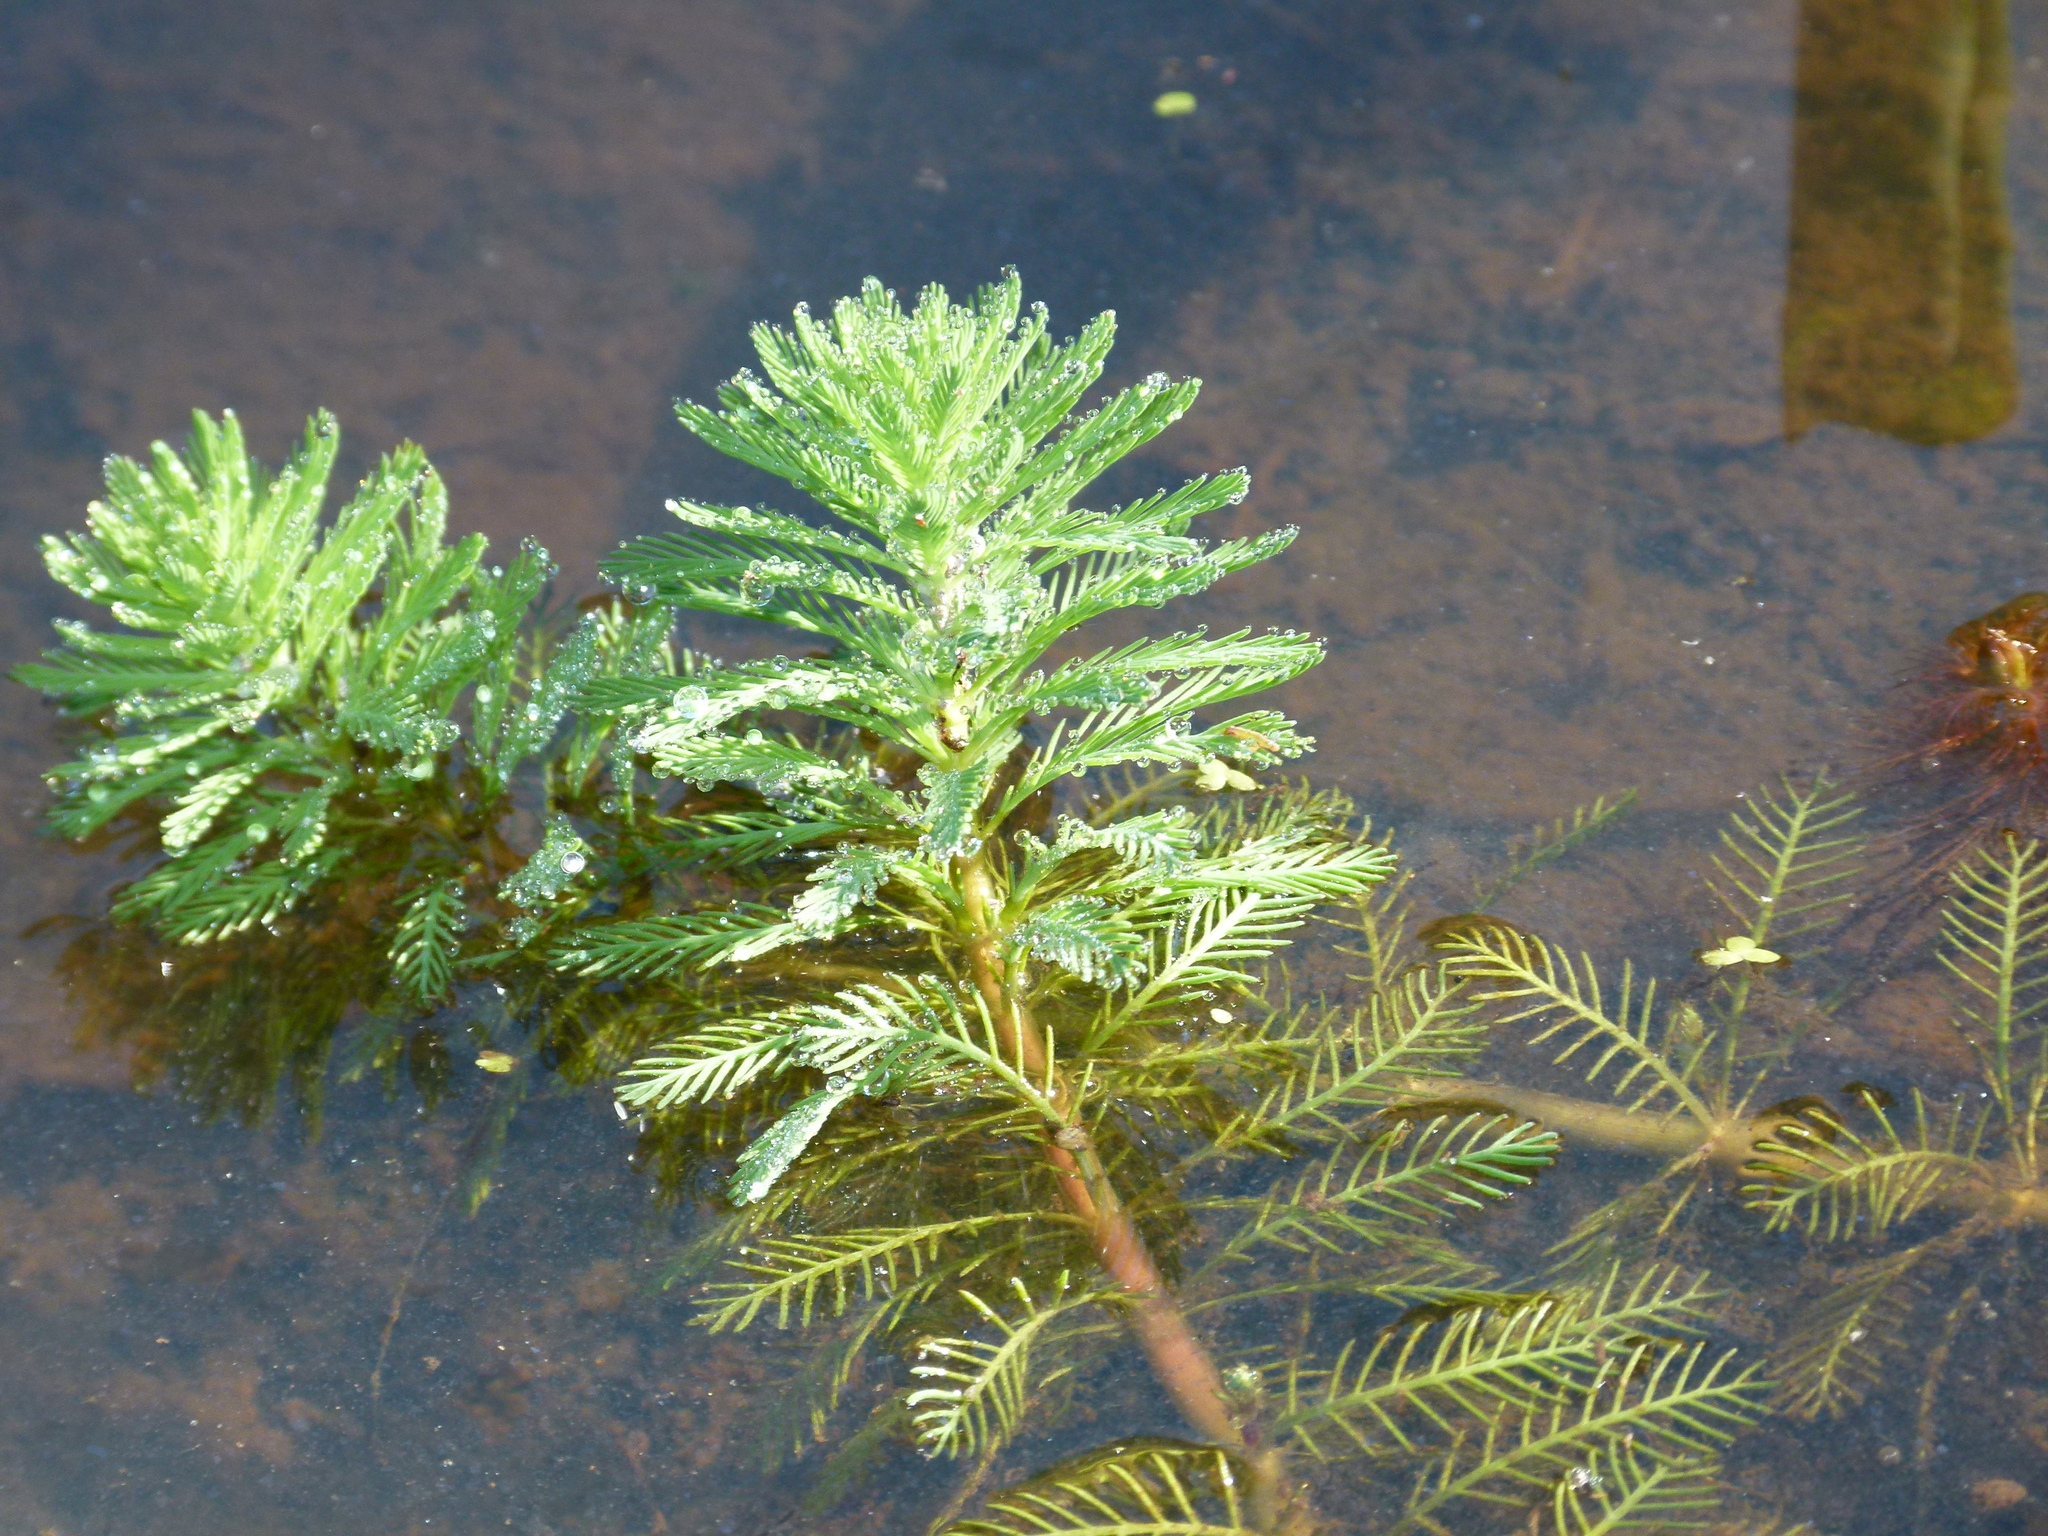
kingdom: Plantae
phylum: Tracheophyta
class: Magnoliopsida
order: Saxifragales
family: Haloragaceae
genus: Myriophyllum
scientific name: Myriophyllum aquaticum
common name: Parrot's feather
